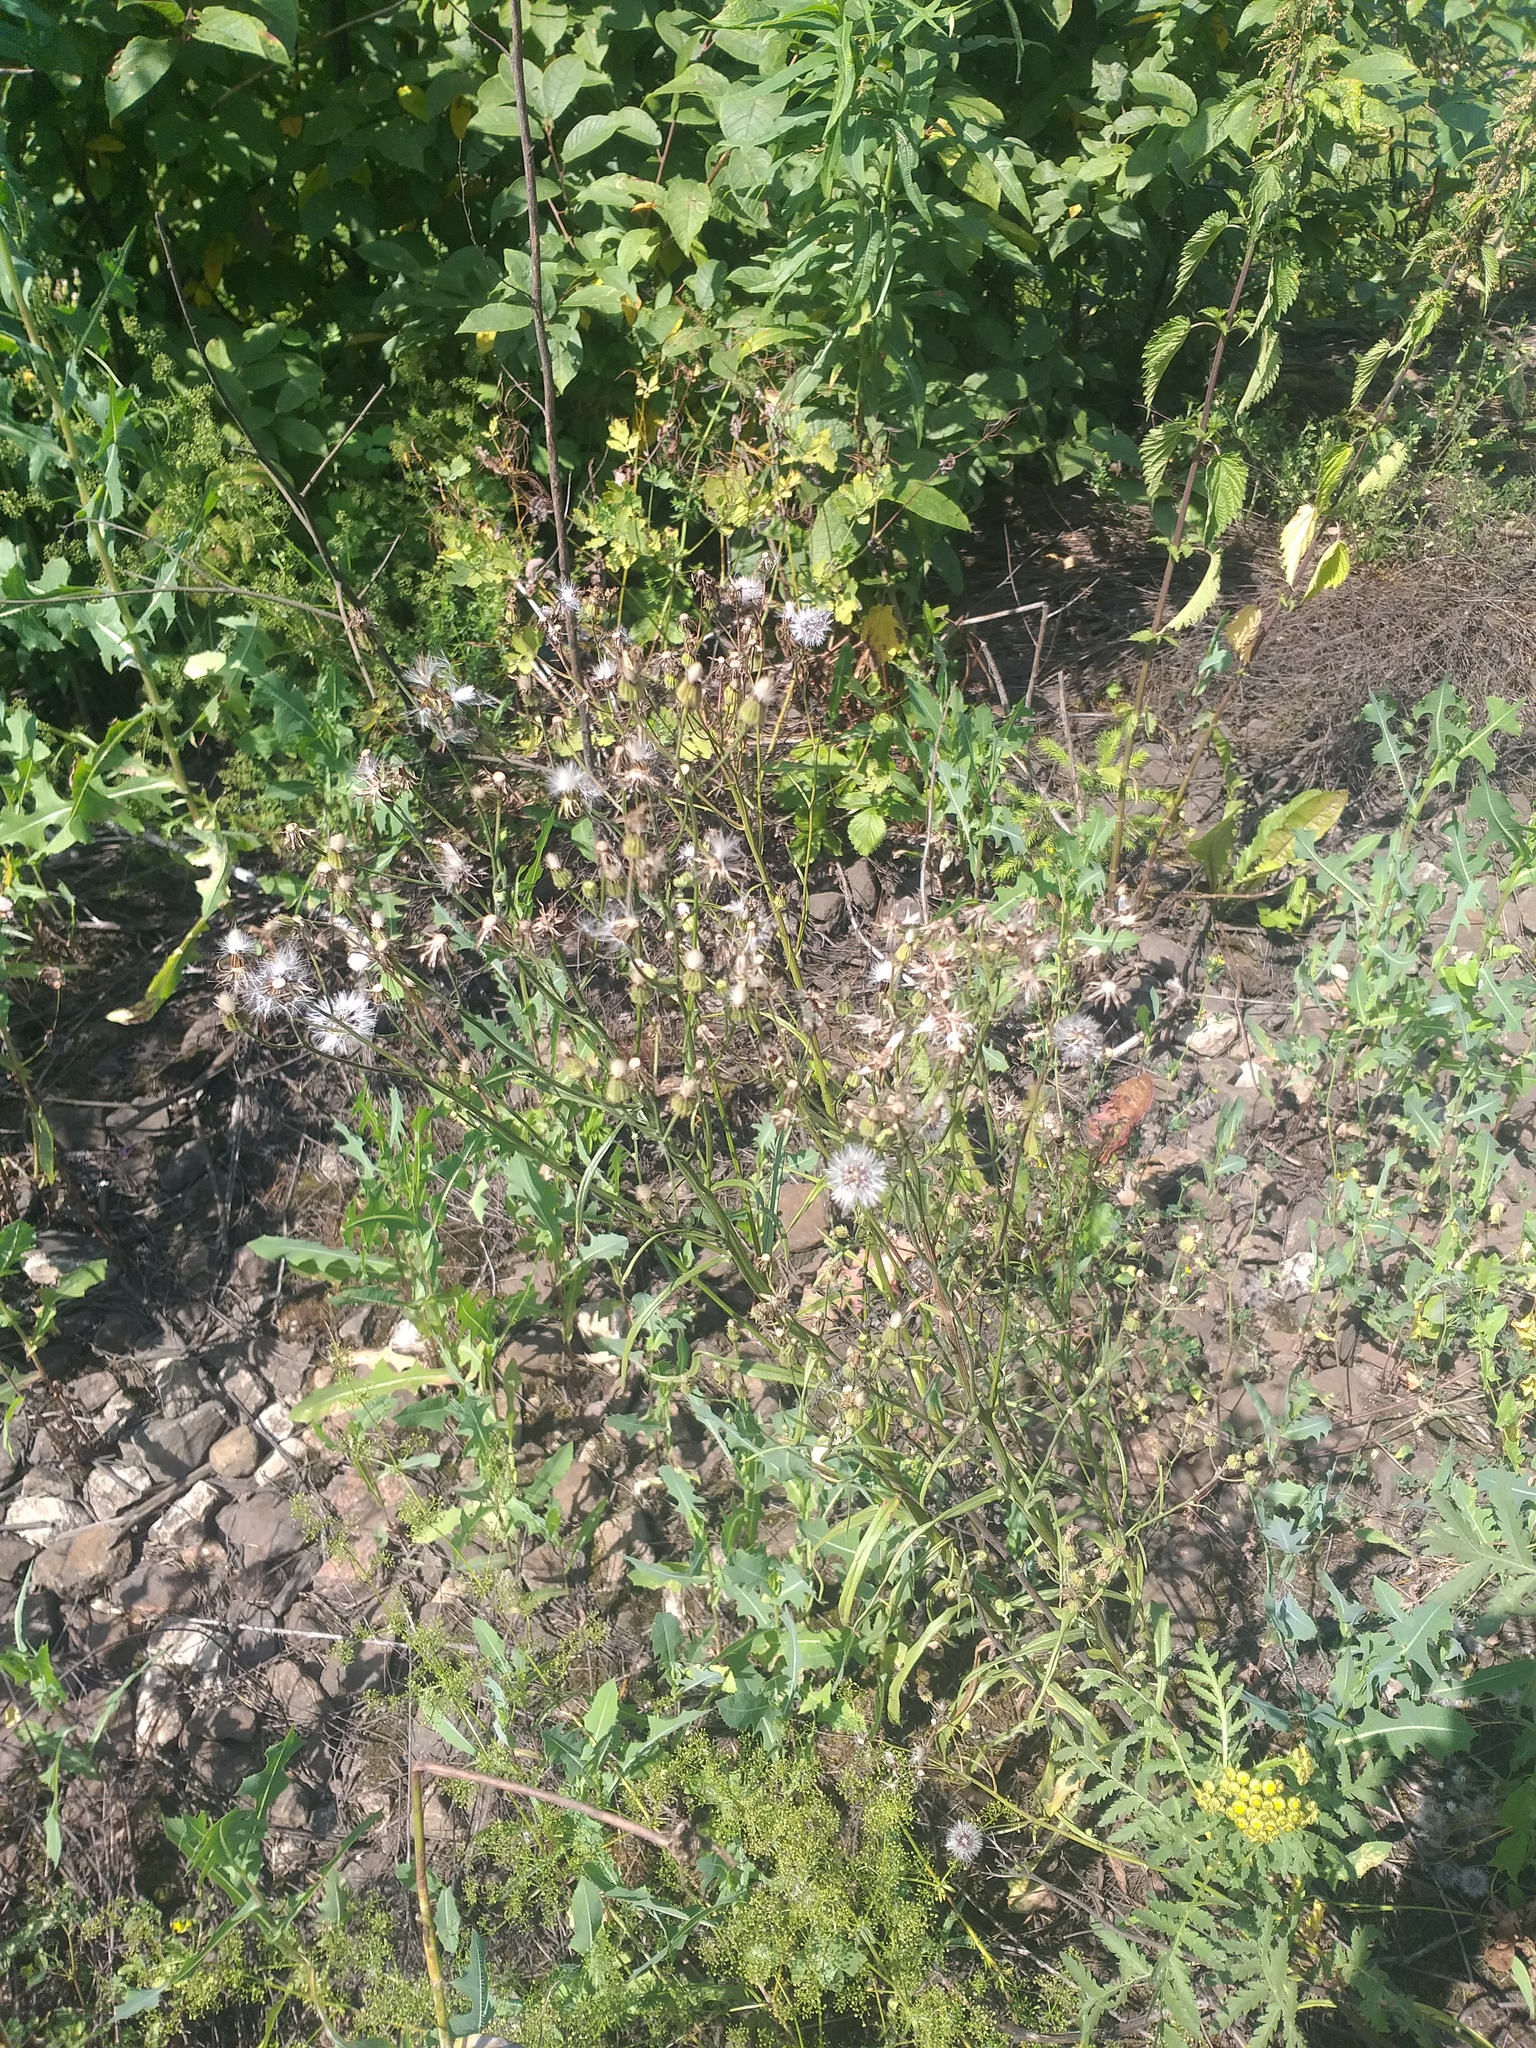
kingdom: Plantae
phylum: Tracheophyta
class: Magnoliopsida
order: Asterales
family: Asteraceae
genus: Crepis
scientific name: Crepis tectorum
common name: Narrow-leaved hawk's-beard
